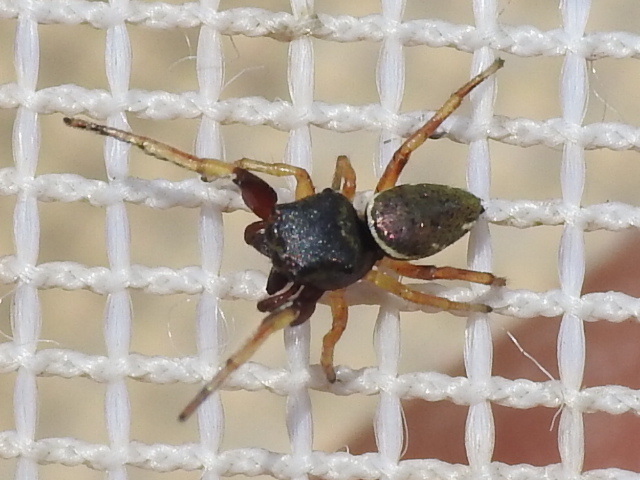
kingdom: Animalia
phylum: Arthropoda
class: Arachnida
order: Araneae
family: Salticidae
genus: Zygoballus
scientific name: Zygoballus rufipes
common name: Jumping spiders
